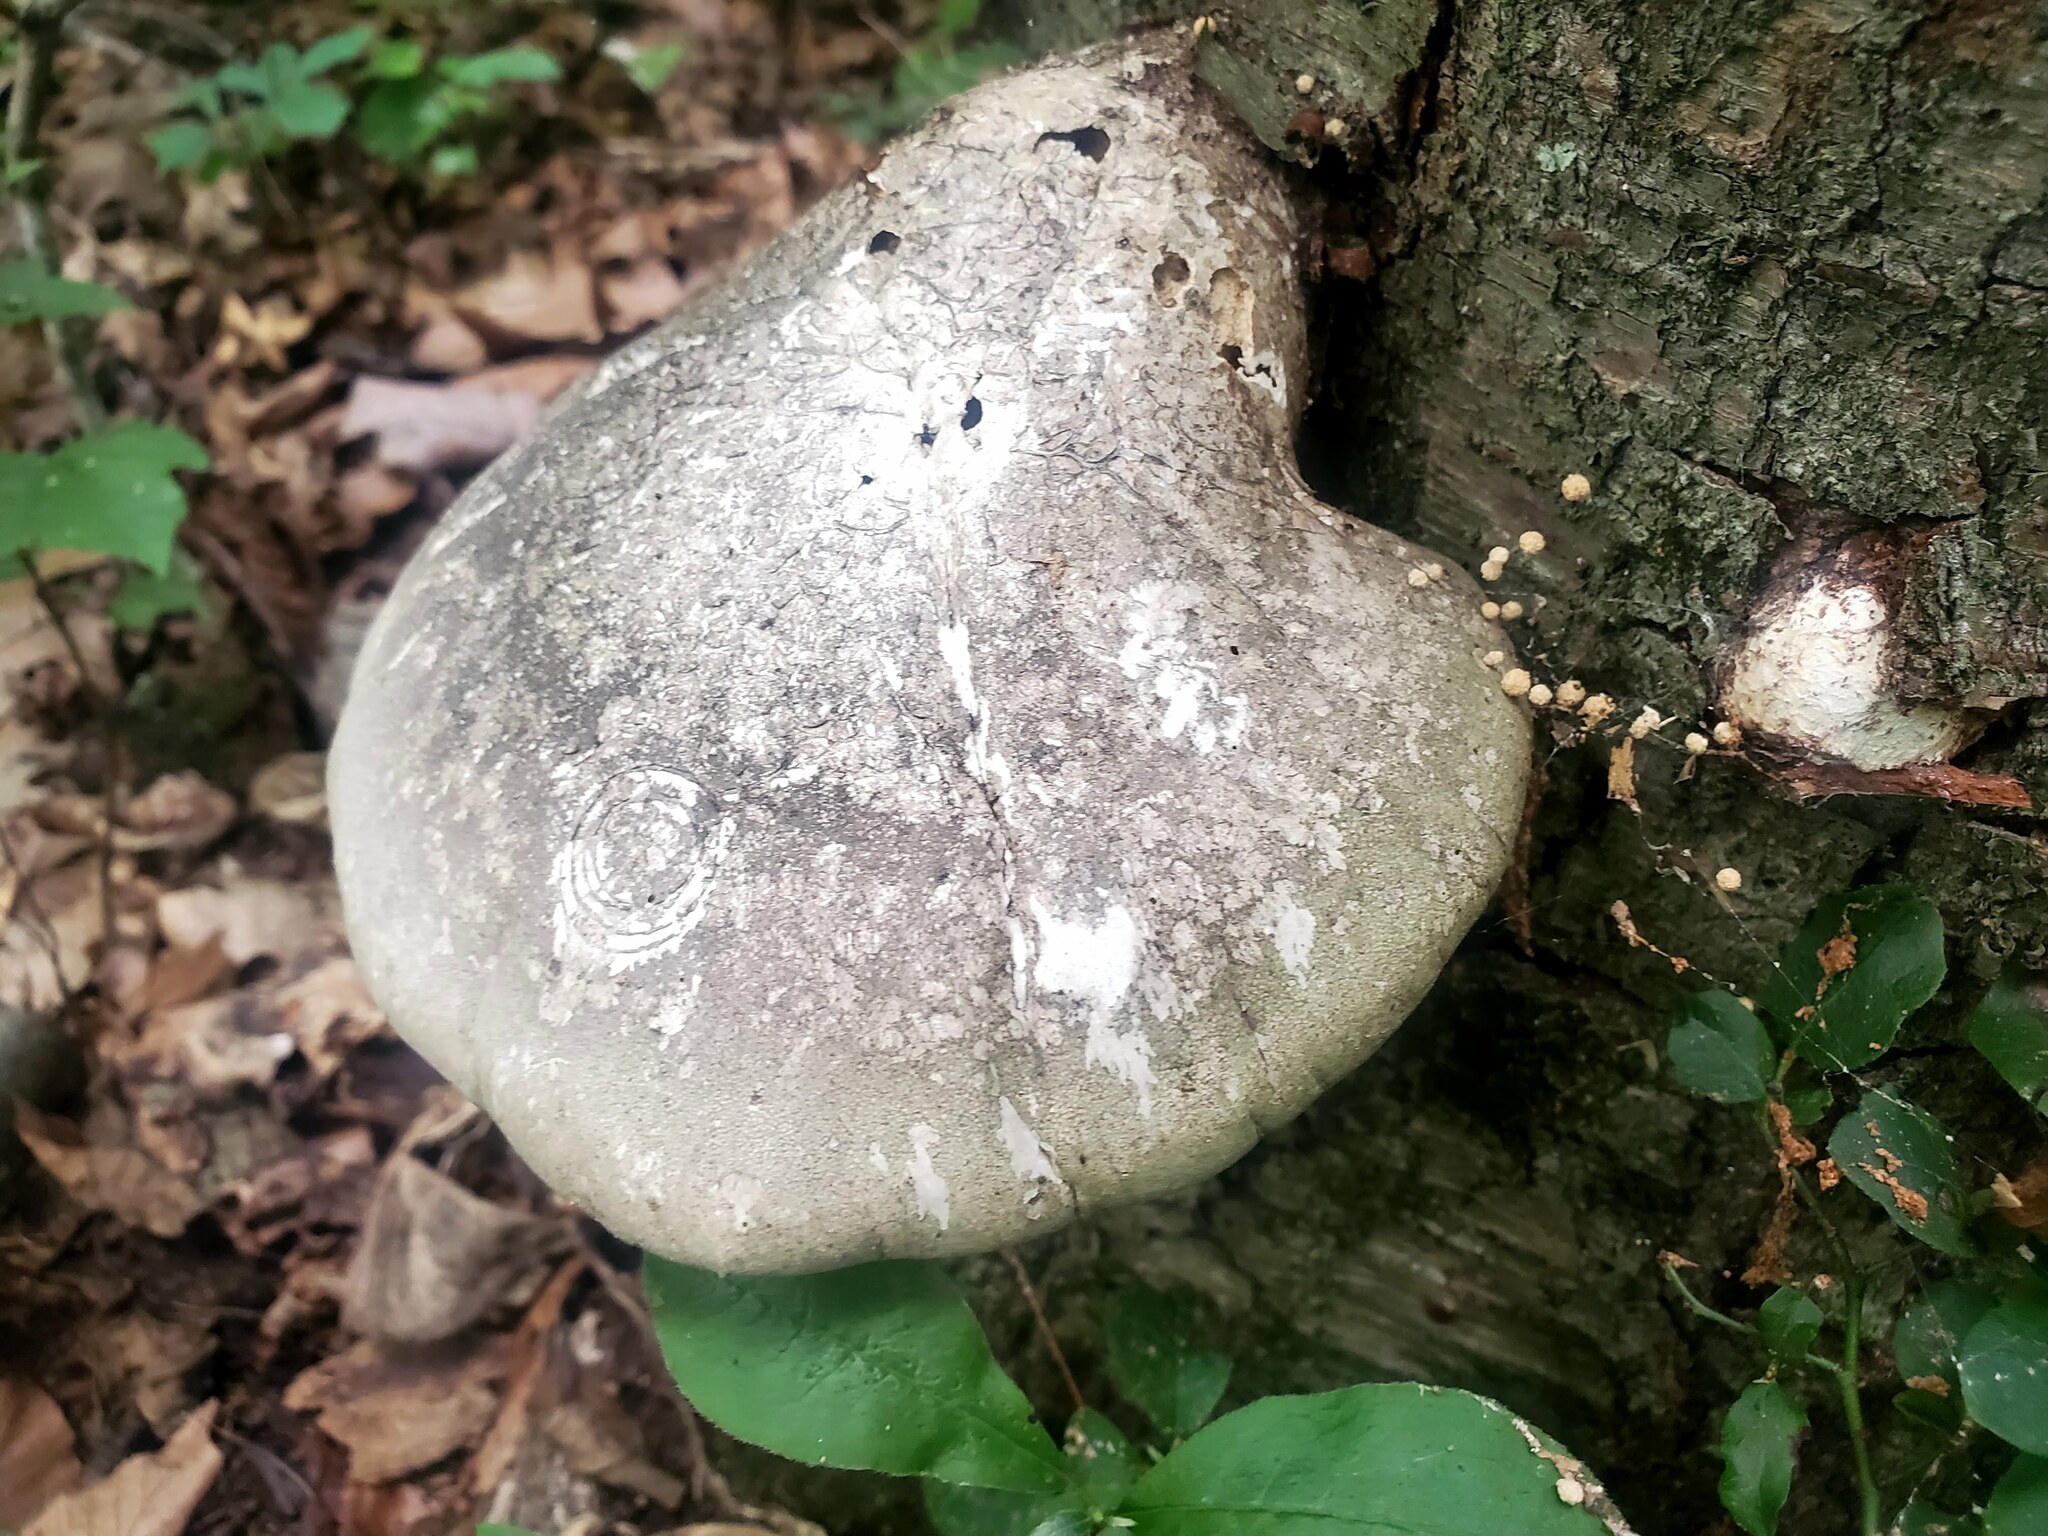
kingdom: Fungi
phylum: Basidiomycota
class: Agaricomycetes
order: Polyporales
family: Fomitopsidaceae
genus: Fomitopsis
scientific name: Fomitopsis betulina
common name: Birch polypore
